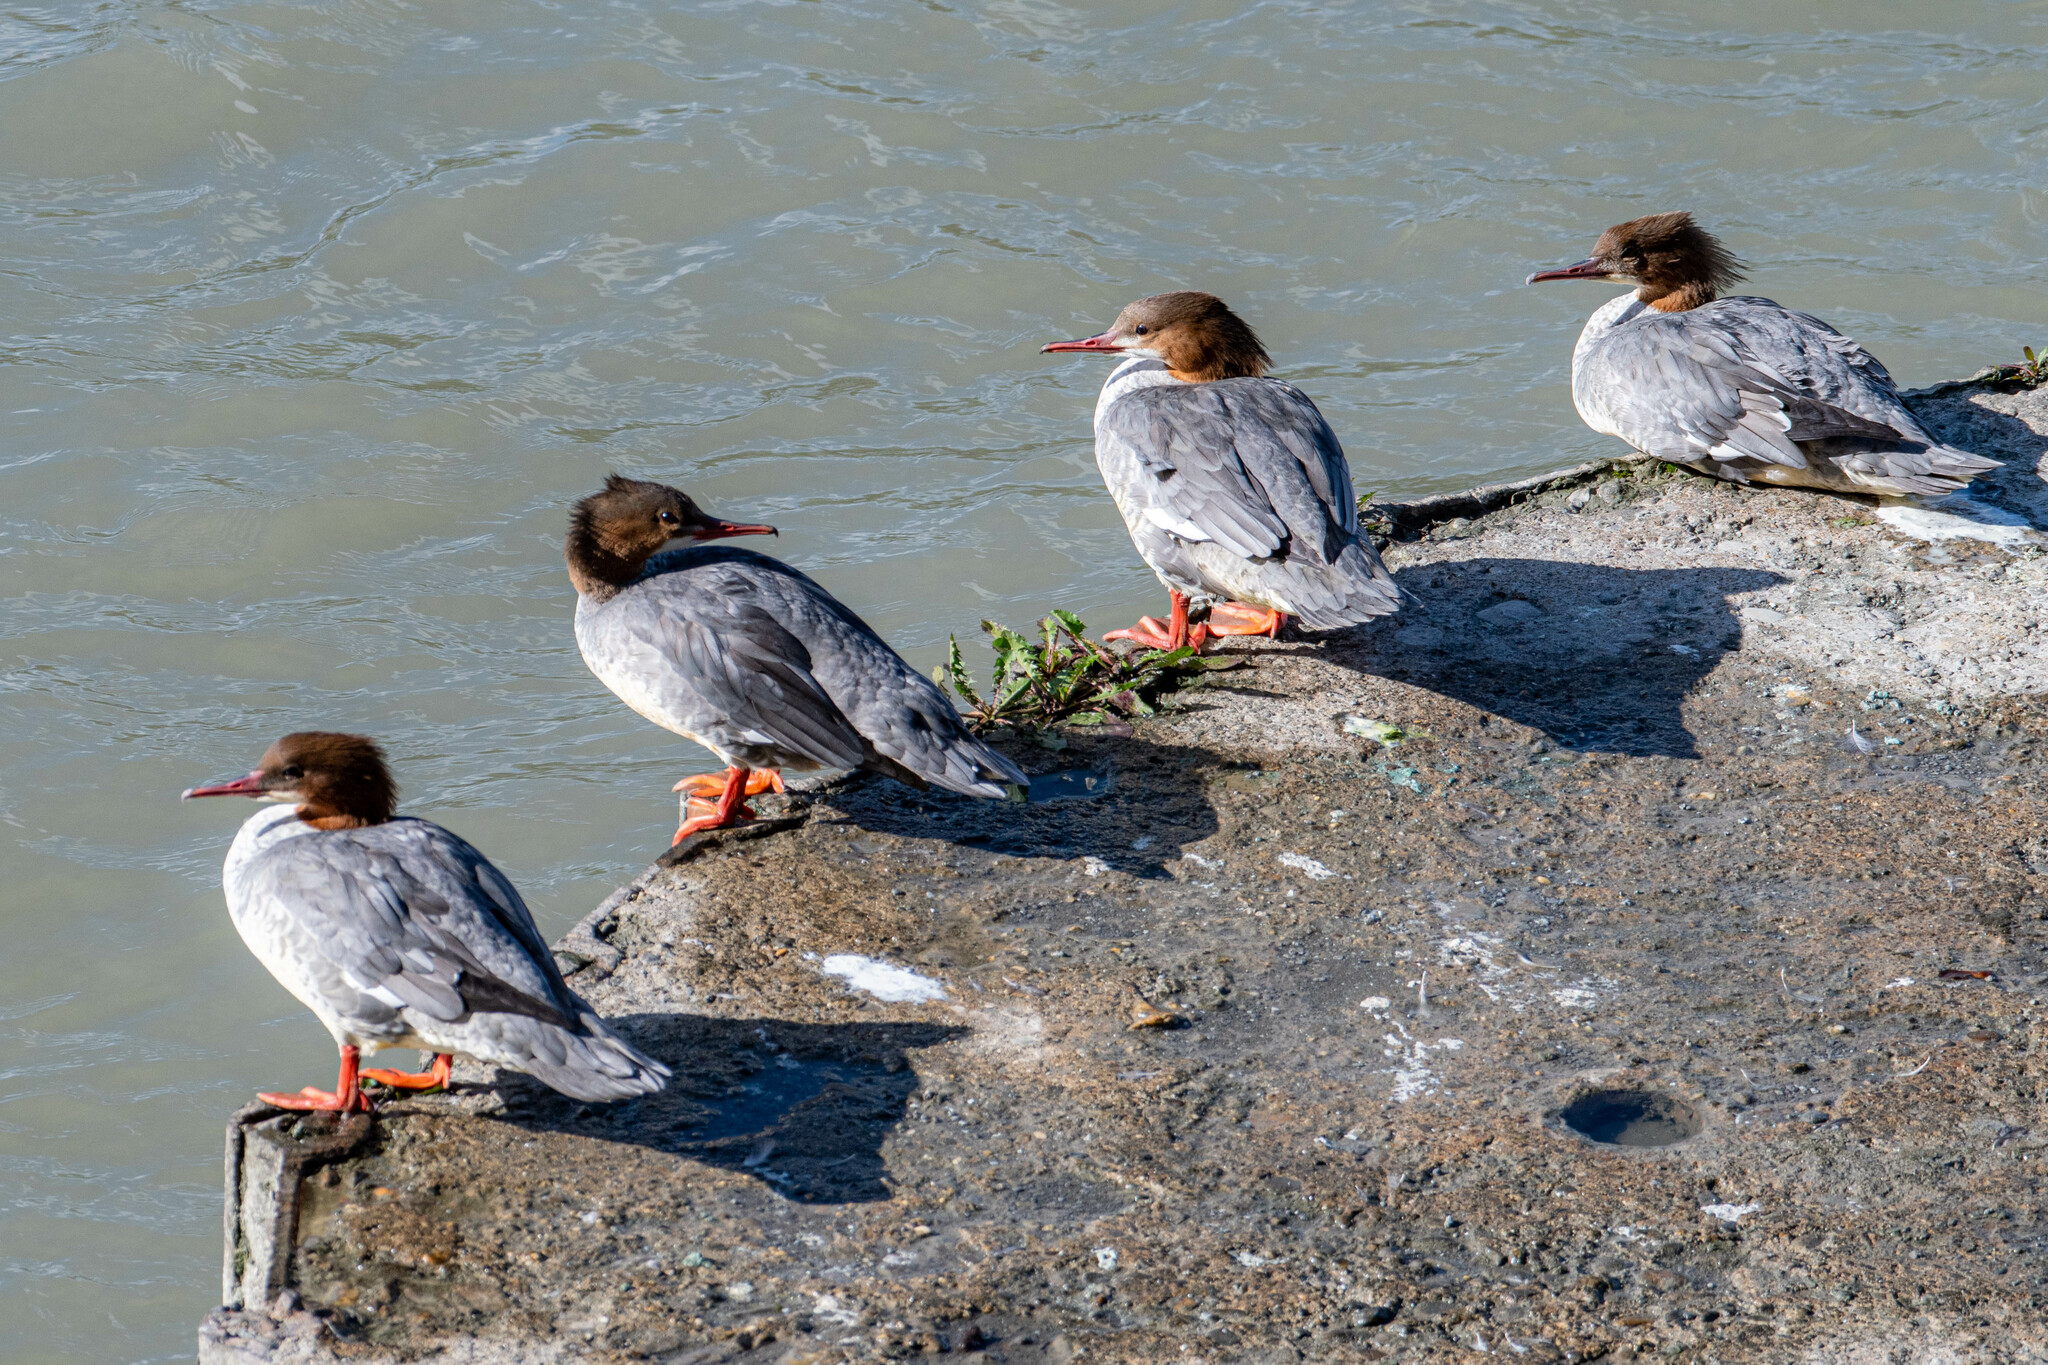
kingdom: Animalia
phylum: Chordata
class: Aves
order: Anseriformes
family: Anatidae
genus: Mergus
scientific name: Mergus merganser
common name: Common merganser
